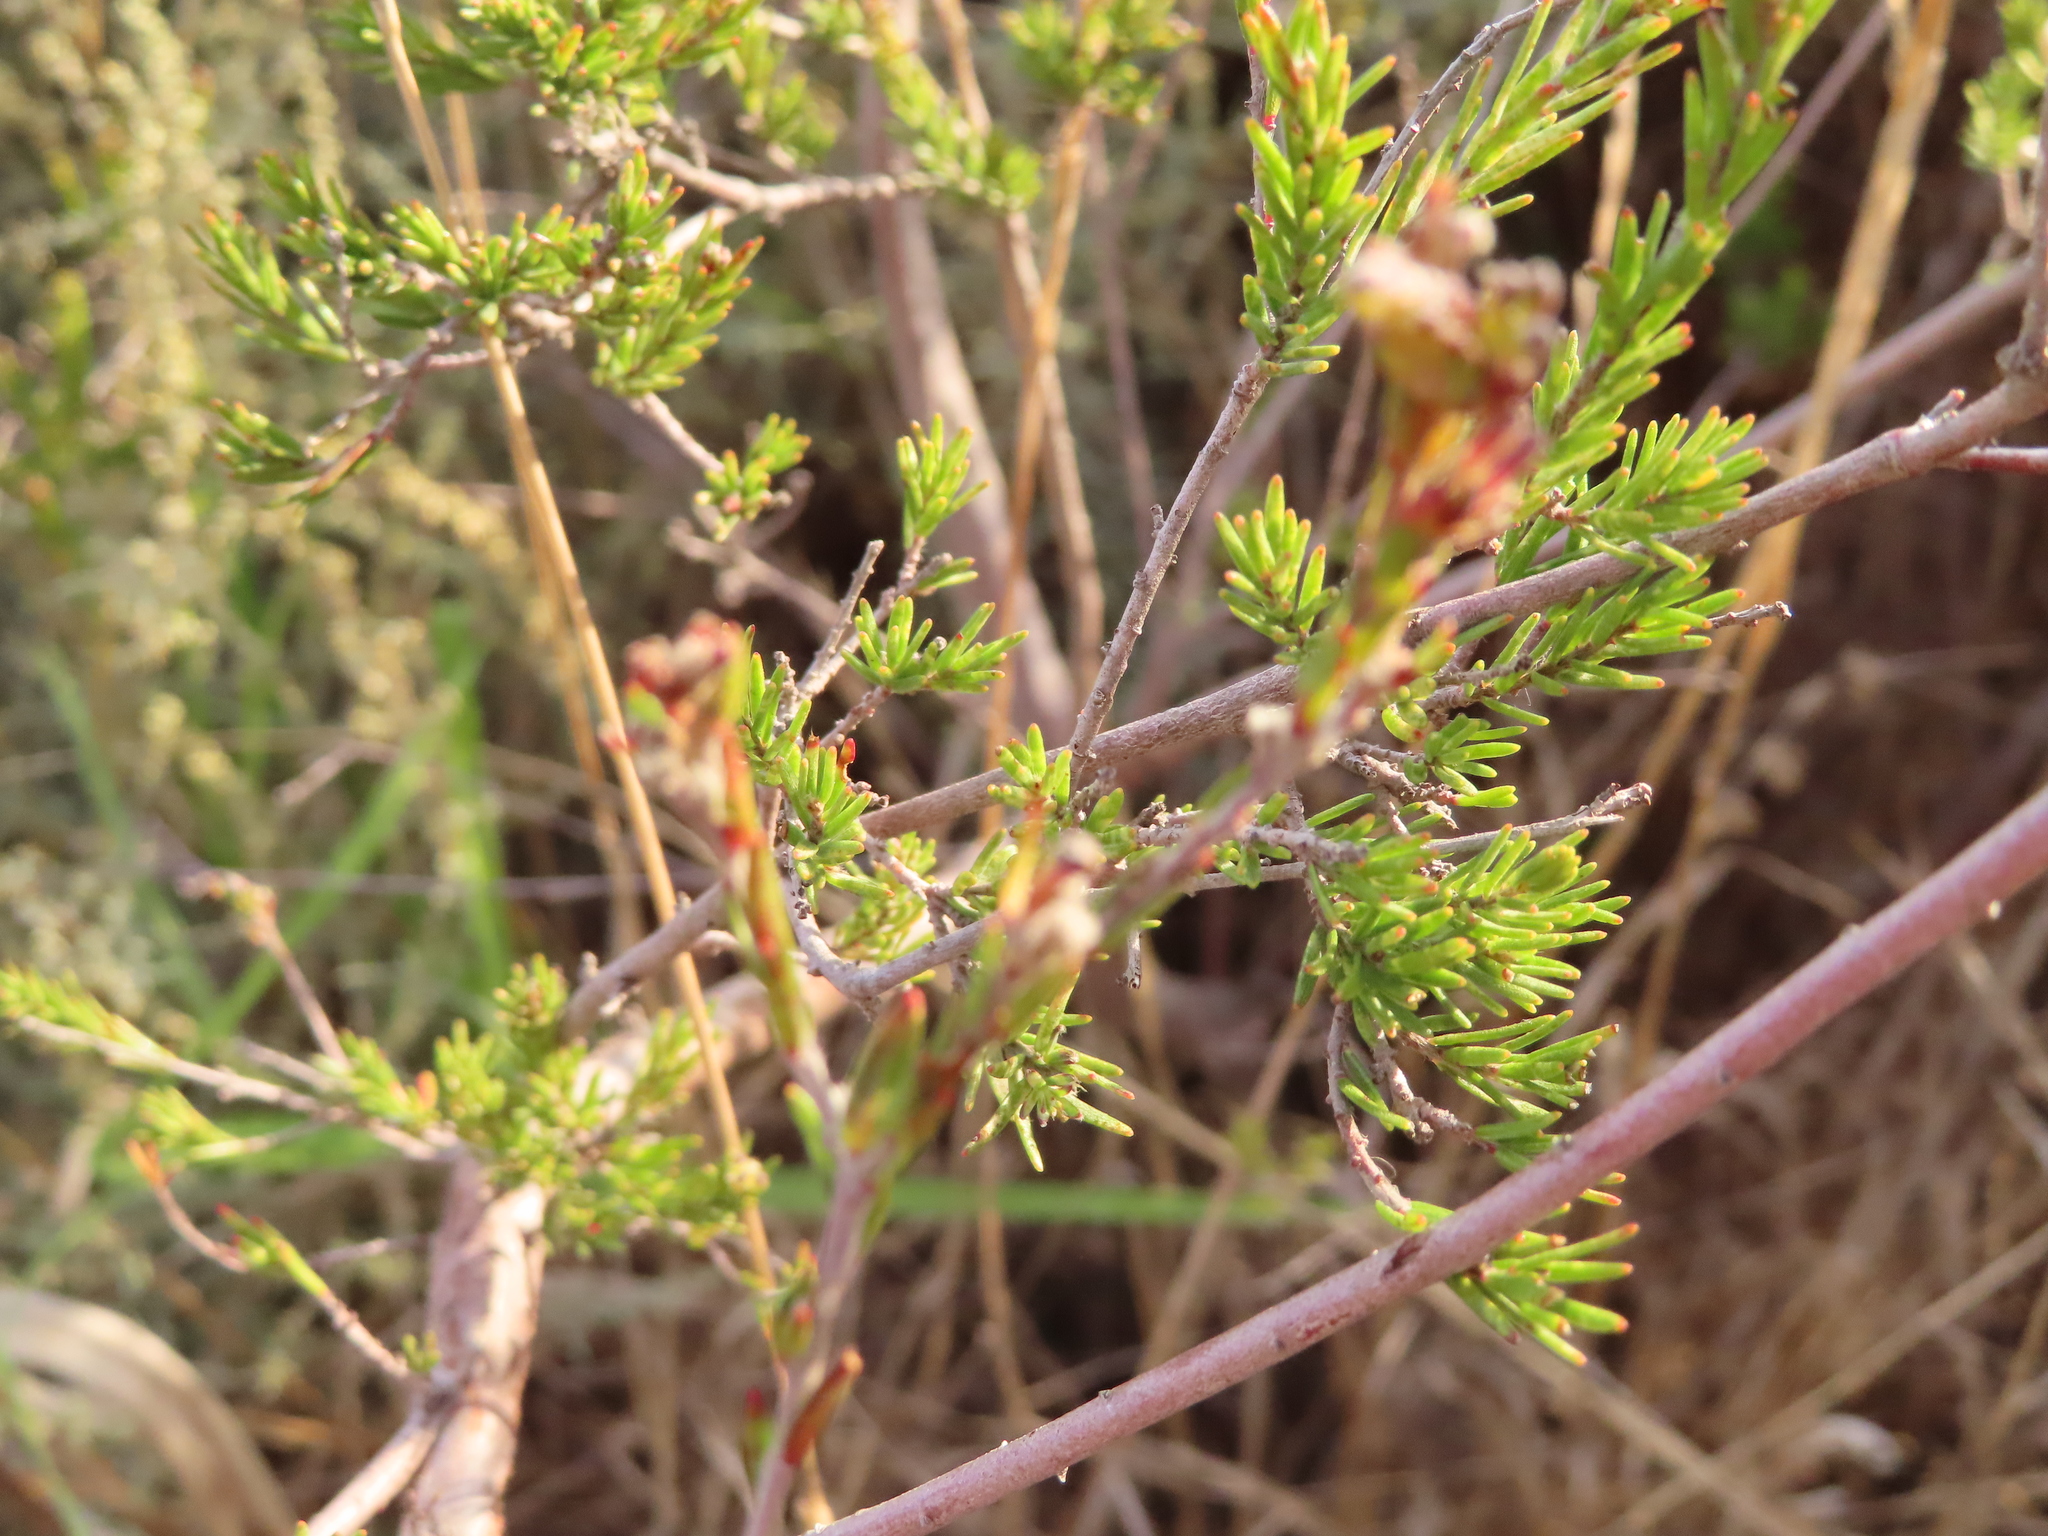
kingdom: Plantae
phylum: Tracheophyta
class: Magnoliopsida
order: Malvales
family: Thymelaeaceae
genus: Gnidia
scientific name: Gnidia laxa
